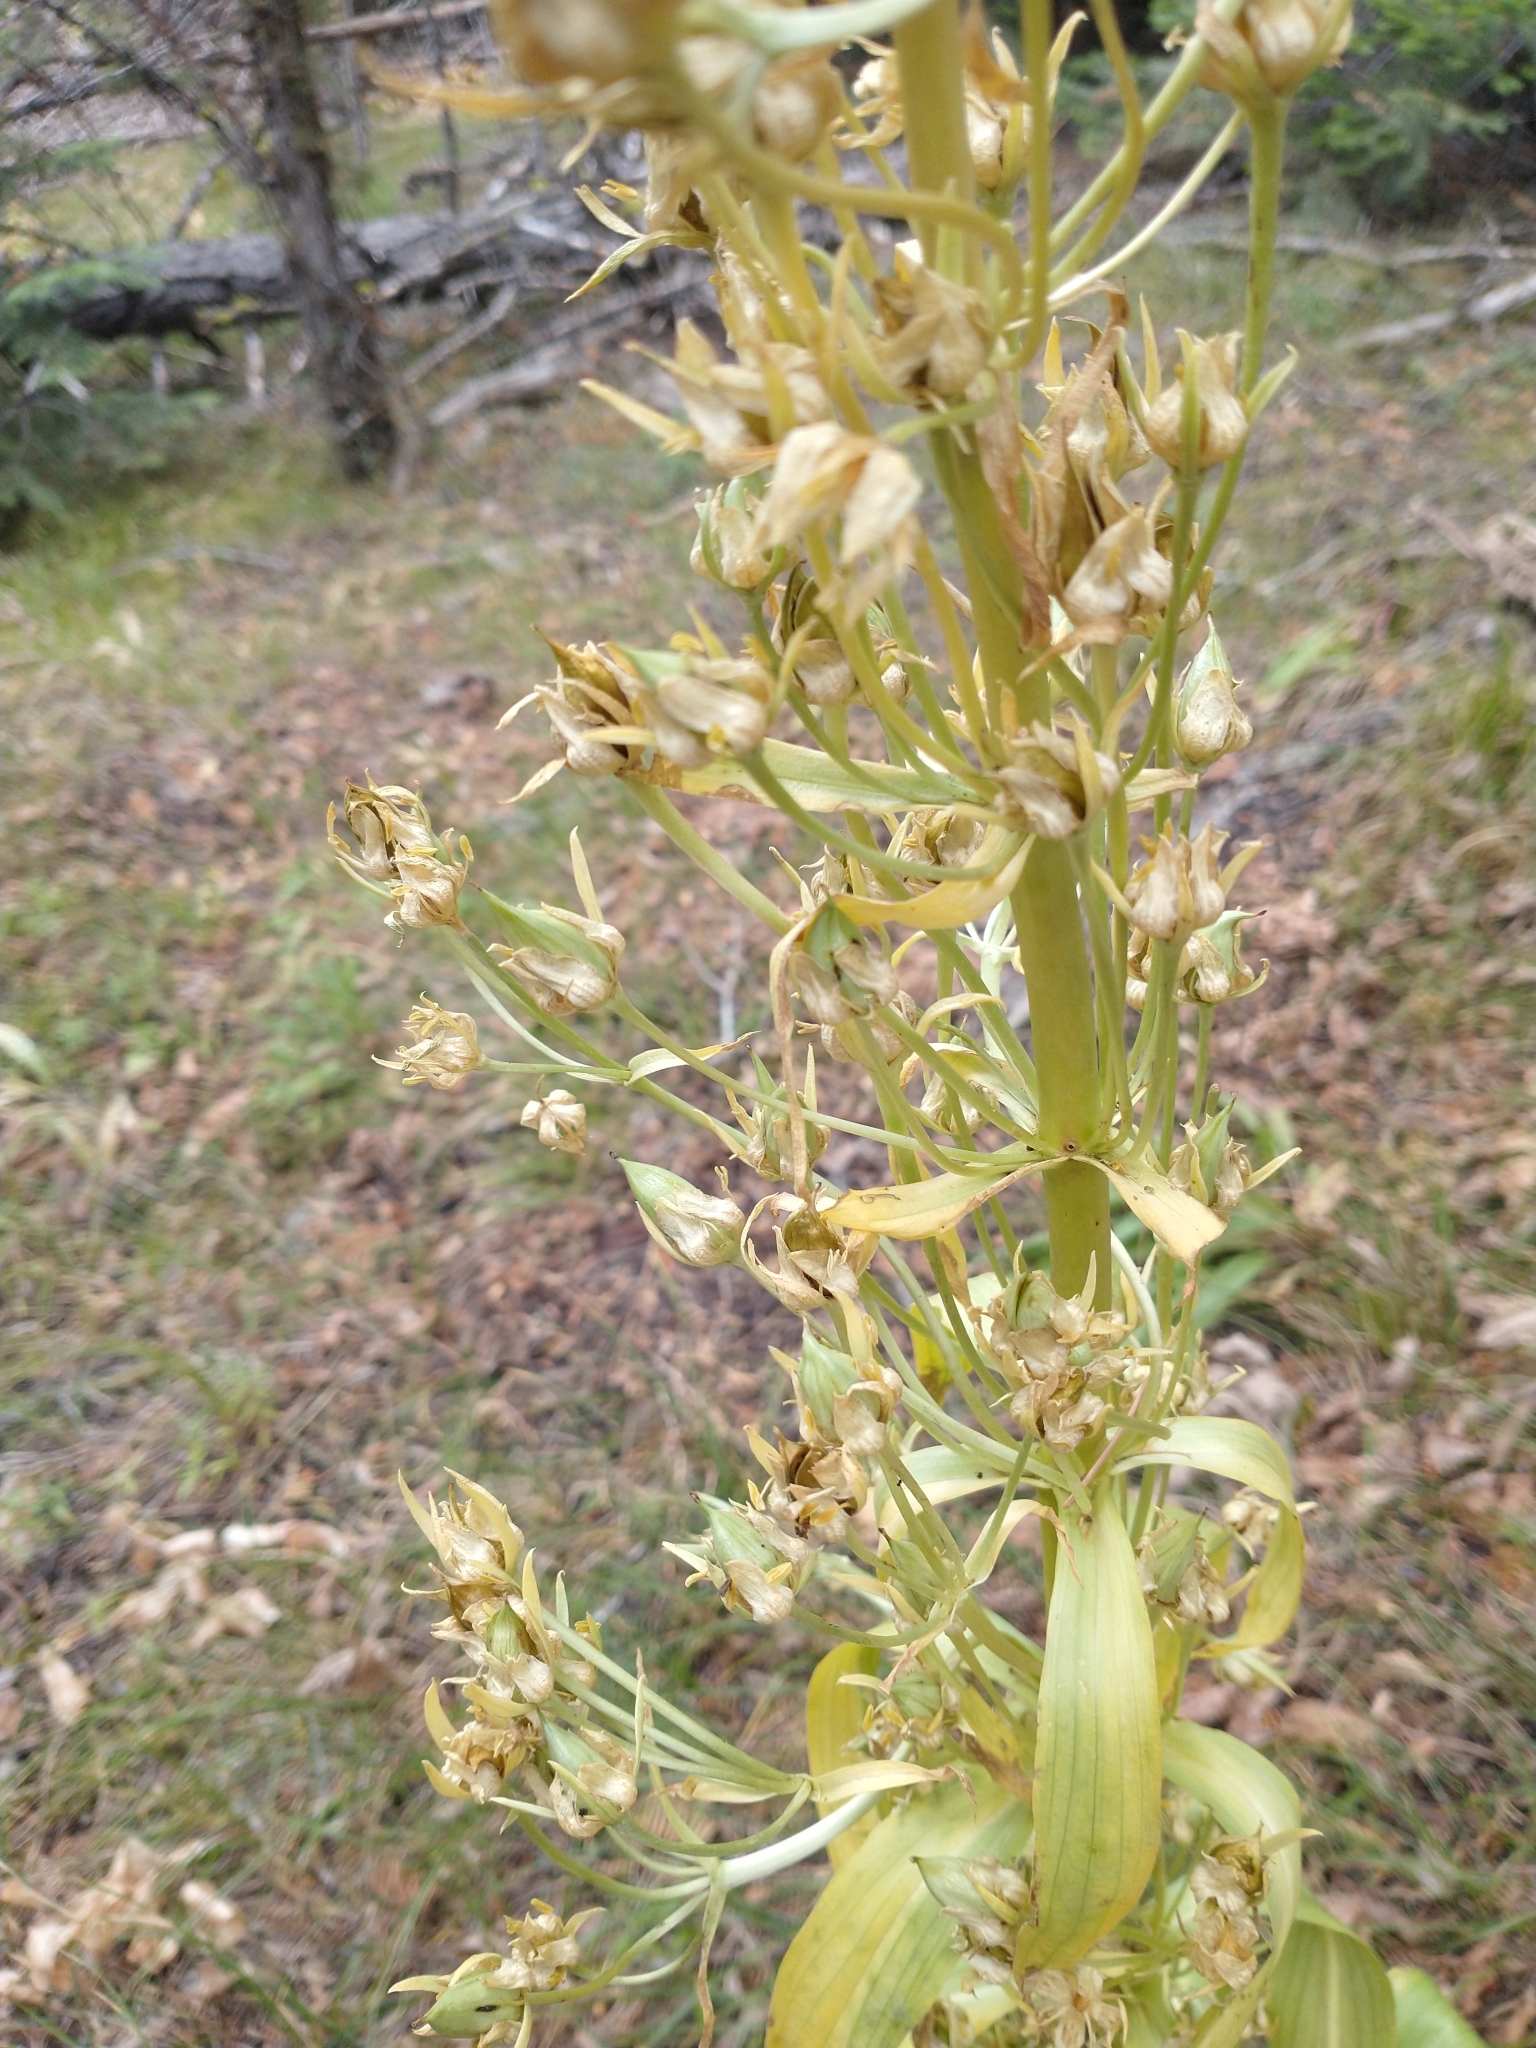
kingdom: Plantae
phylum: Tracheophyta
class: Magnoliopsida
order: Gentianales
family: Gentianaceae
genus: Frasera
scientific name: Frasera speciosa
